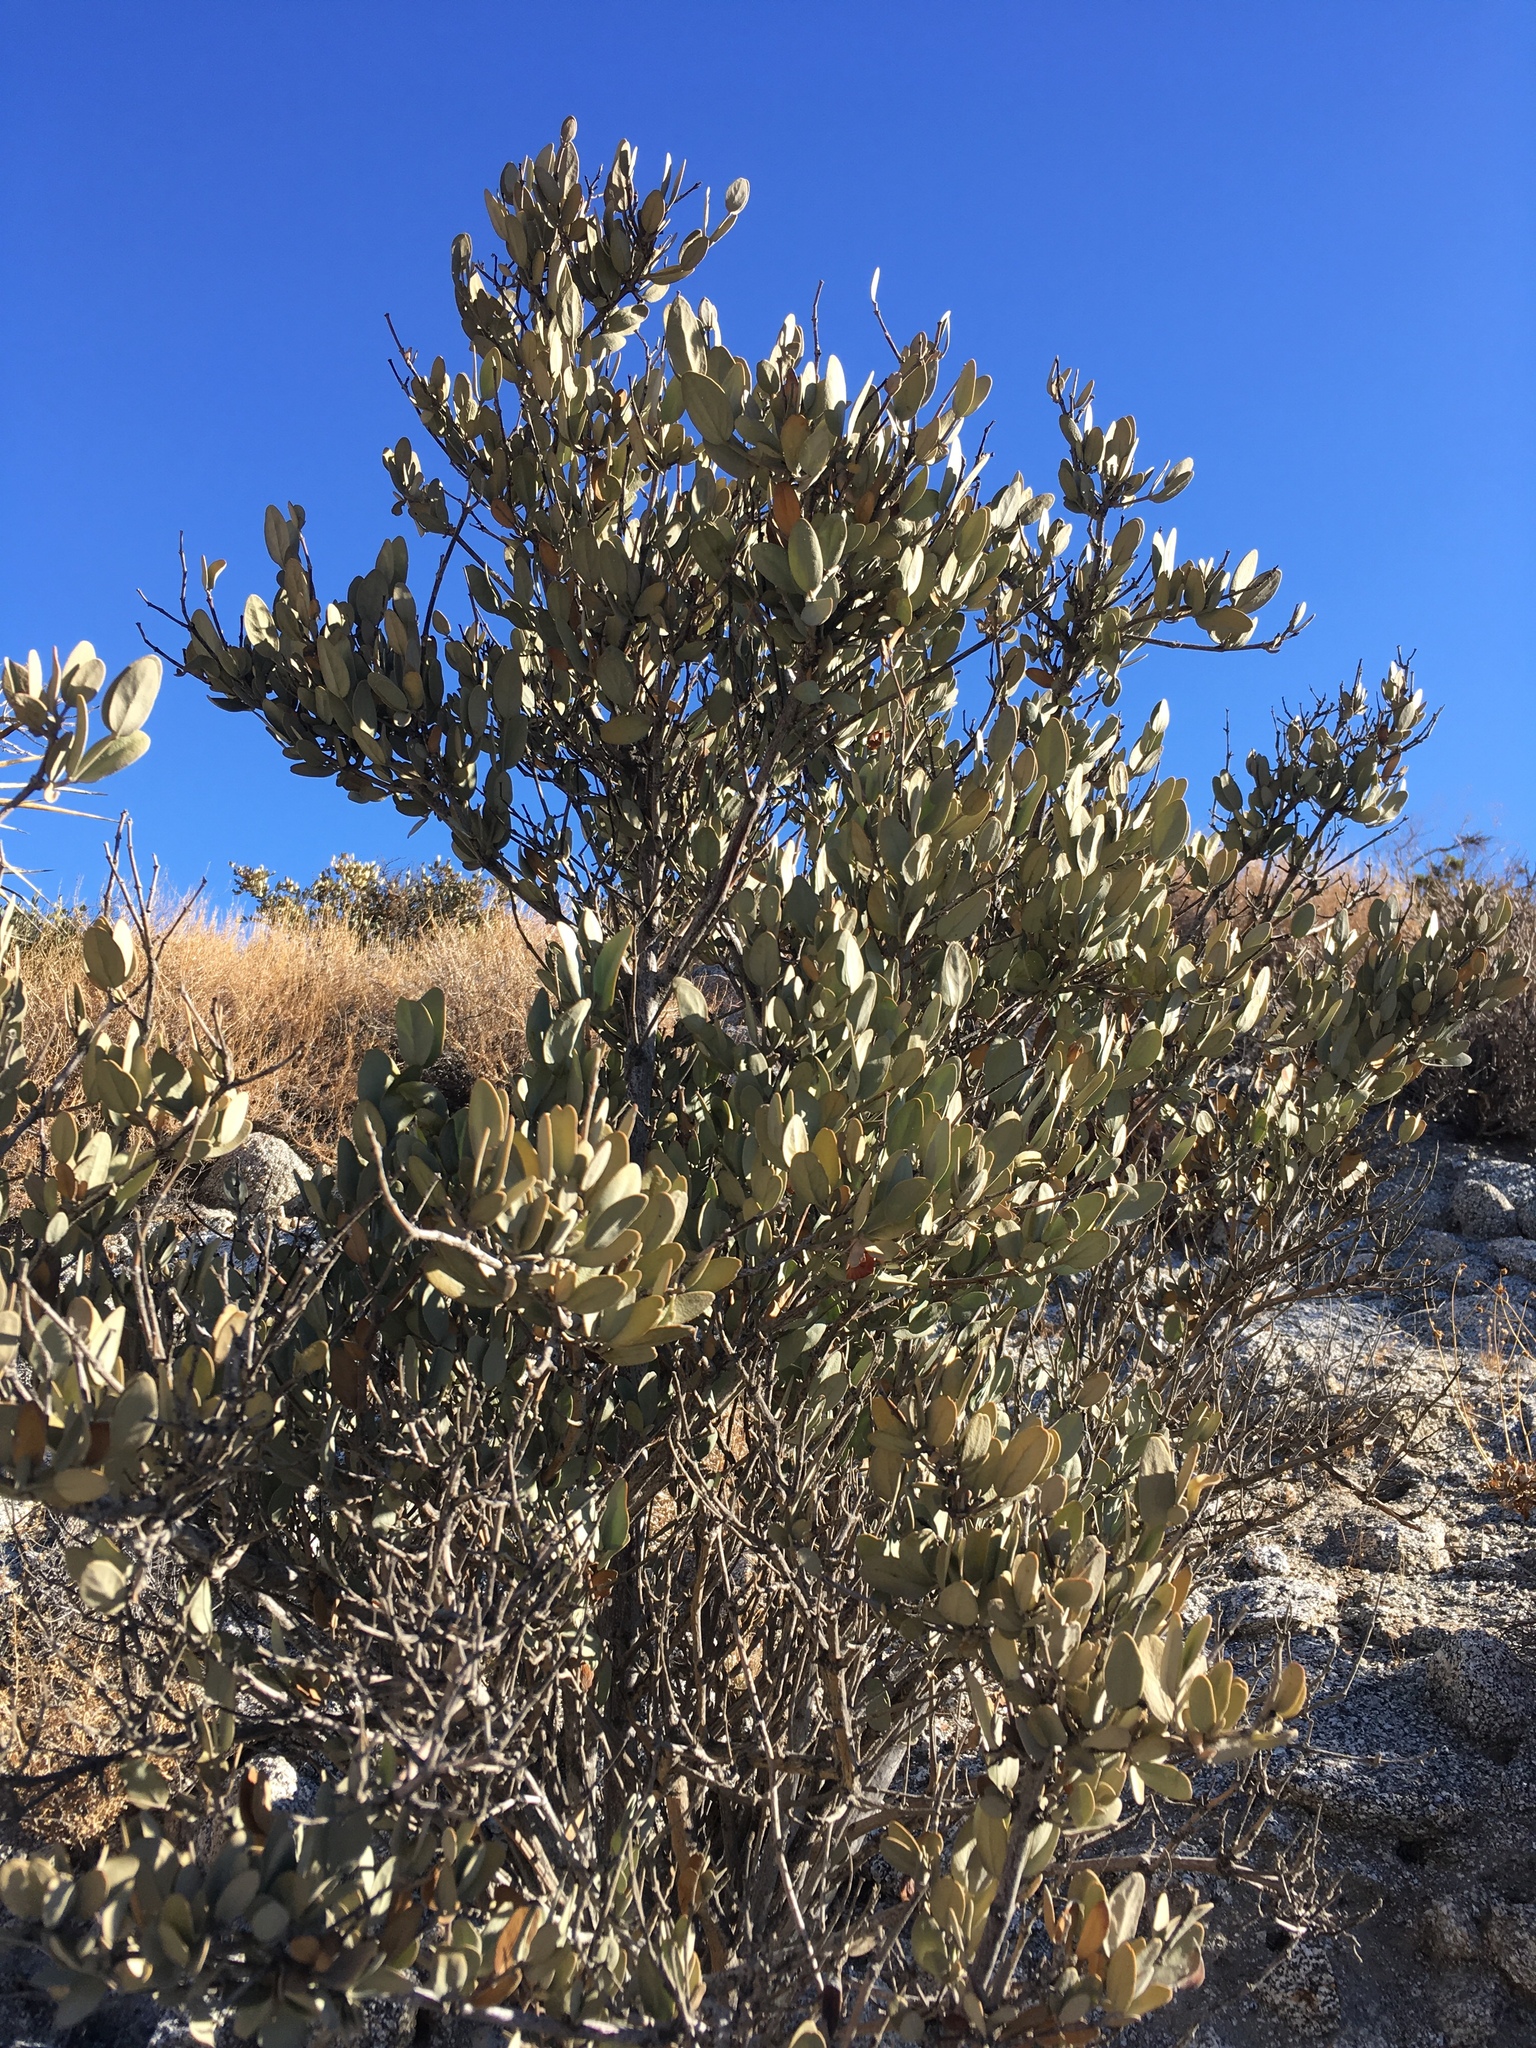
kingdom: Plantae
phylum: Tracheophyta
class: Magnoliopsida
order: Caryophyllales
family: Simmondsiaceae
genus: Simmondsia
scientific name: Simmondsia chinensis
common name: Jojoba
